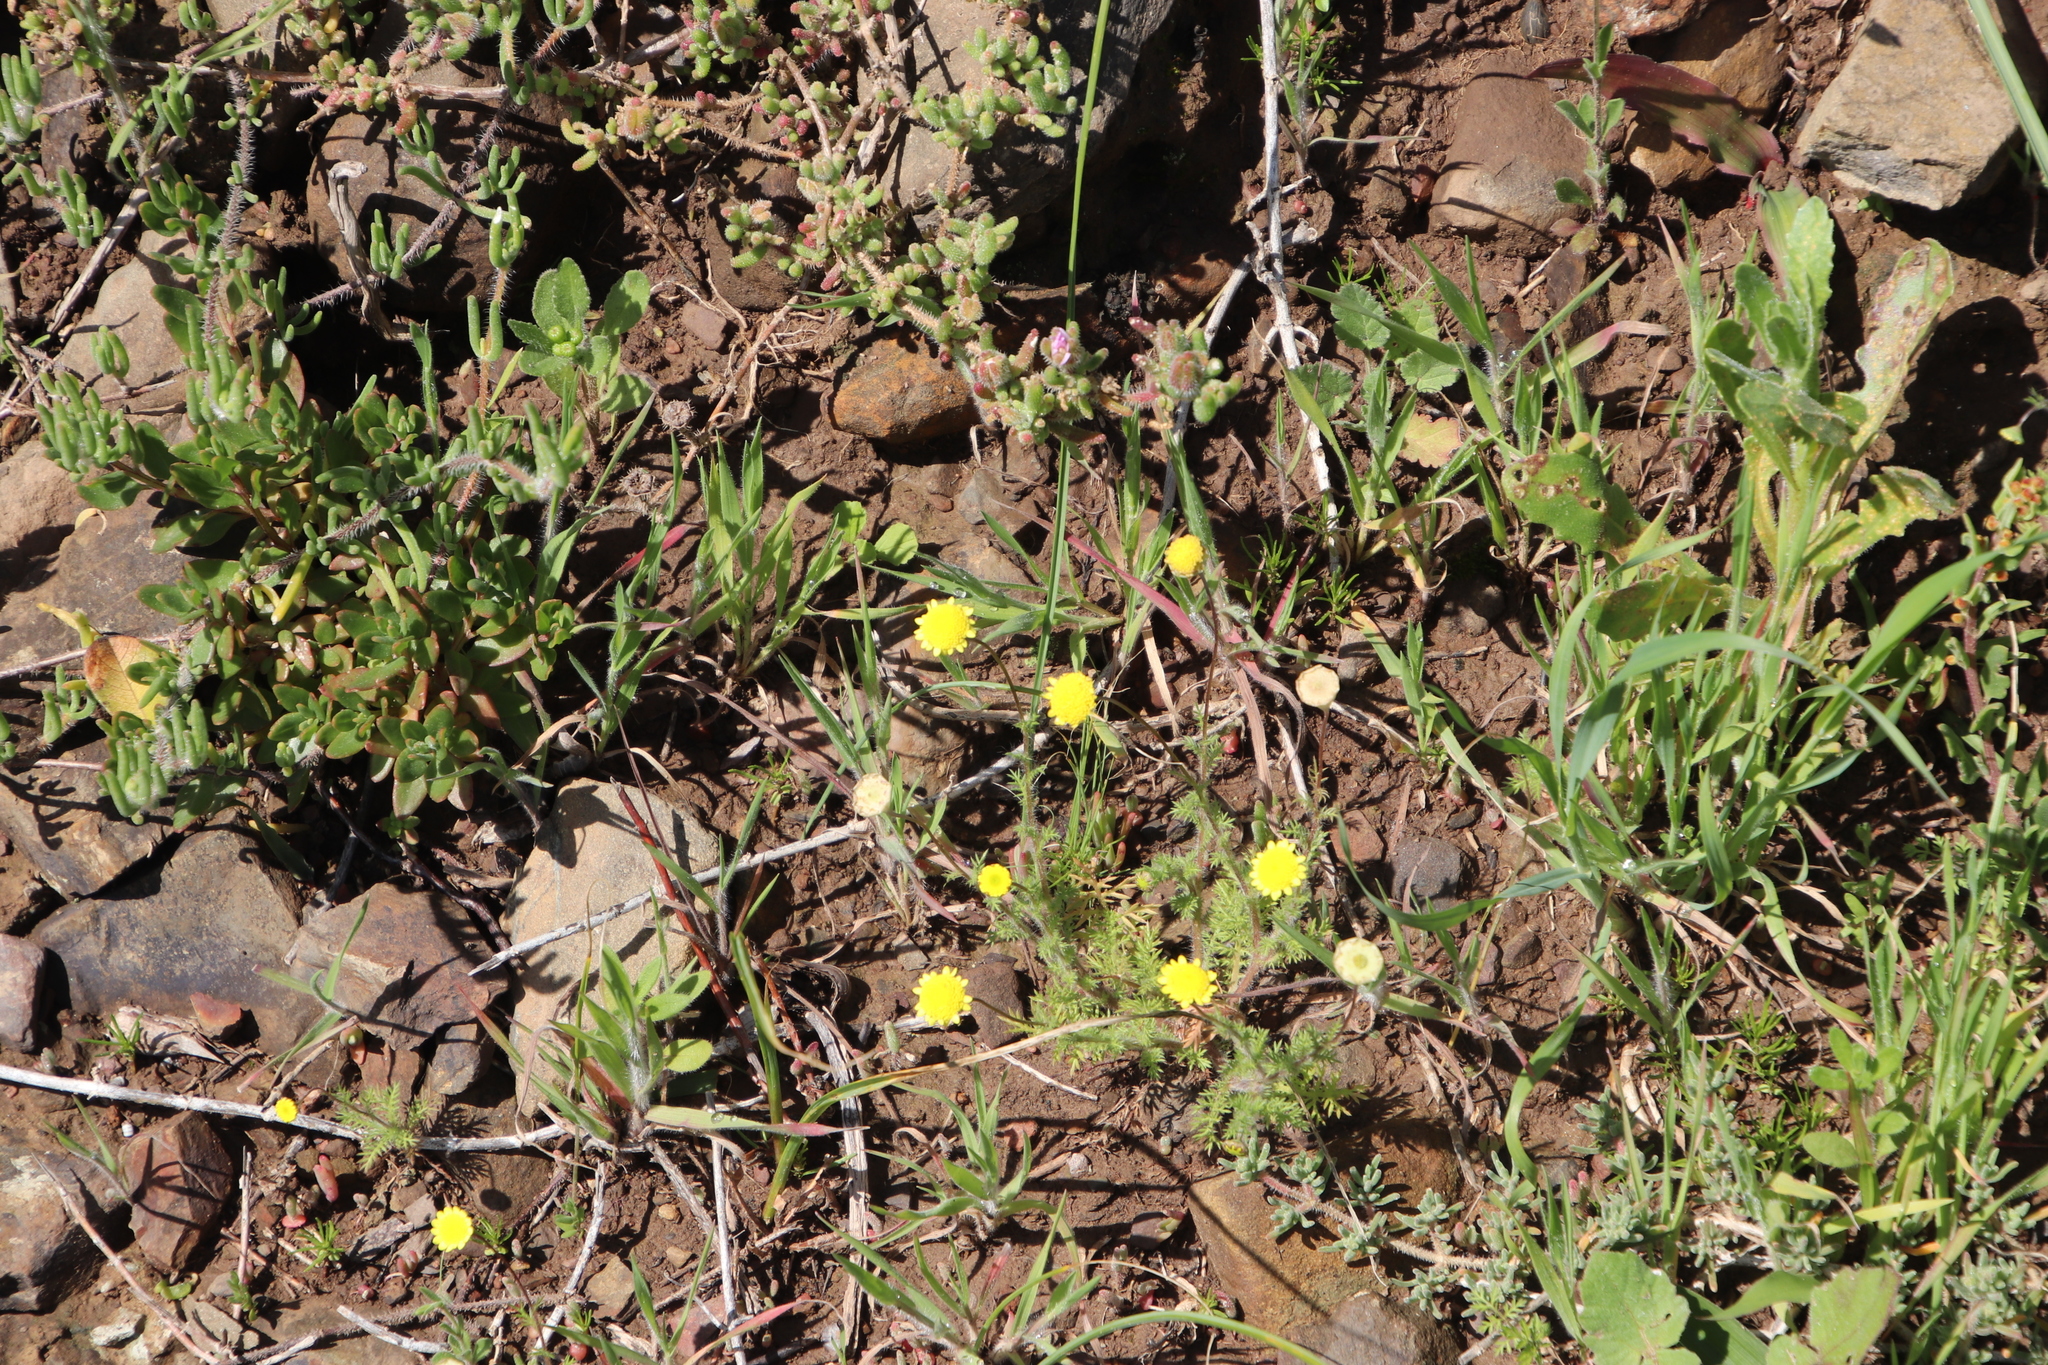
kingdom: Plantae
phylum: Tracheophyta
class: Magnoliopsida
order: Asterales
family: Asteraceae
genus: Cotula
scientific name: Cotula pruinosa
